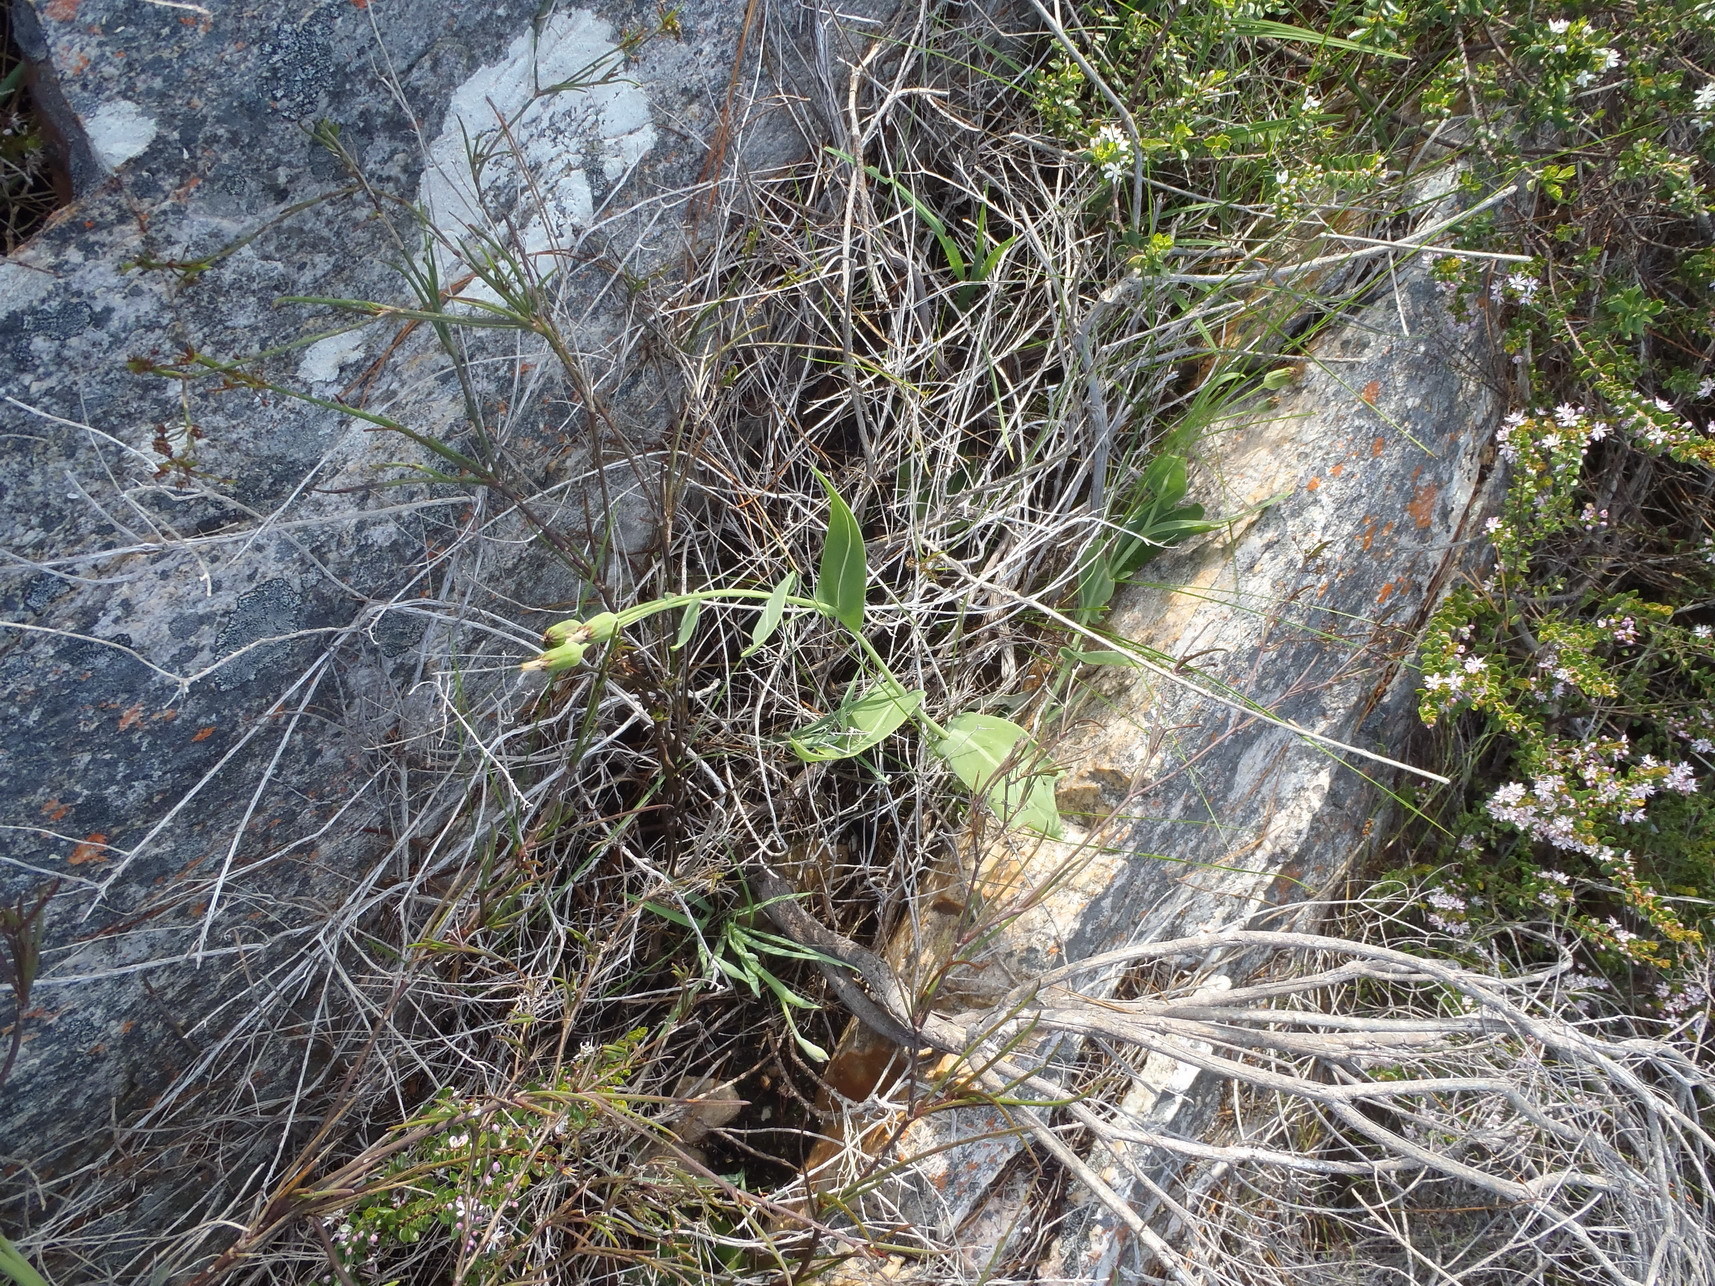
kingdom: Plantae
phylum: Tracheophyta
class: Magnoliopsida
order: Asterales
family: Asteraceae
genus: Othonna
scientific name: Othonna gymnodiscus
